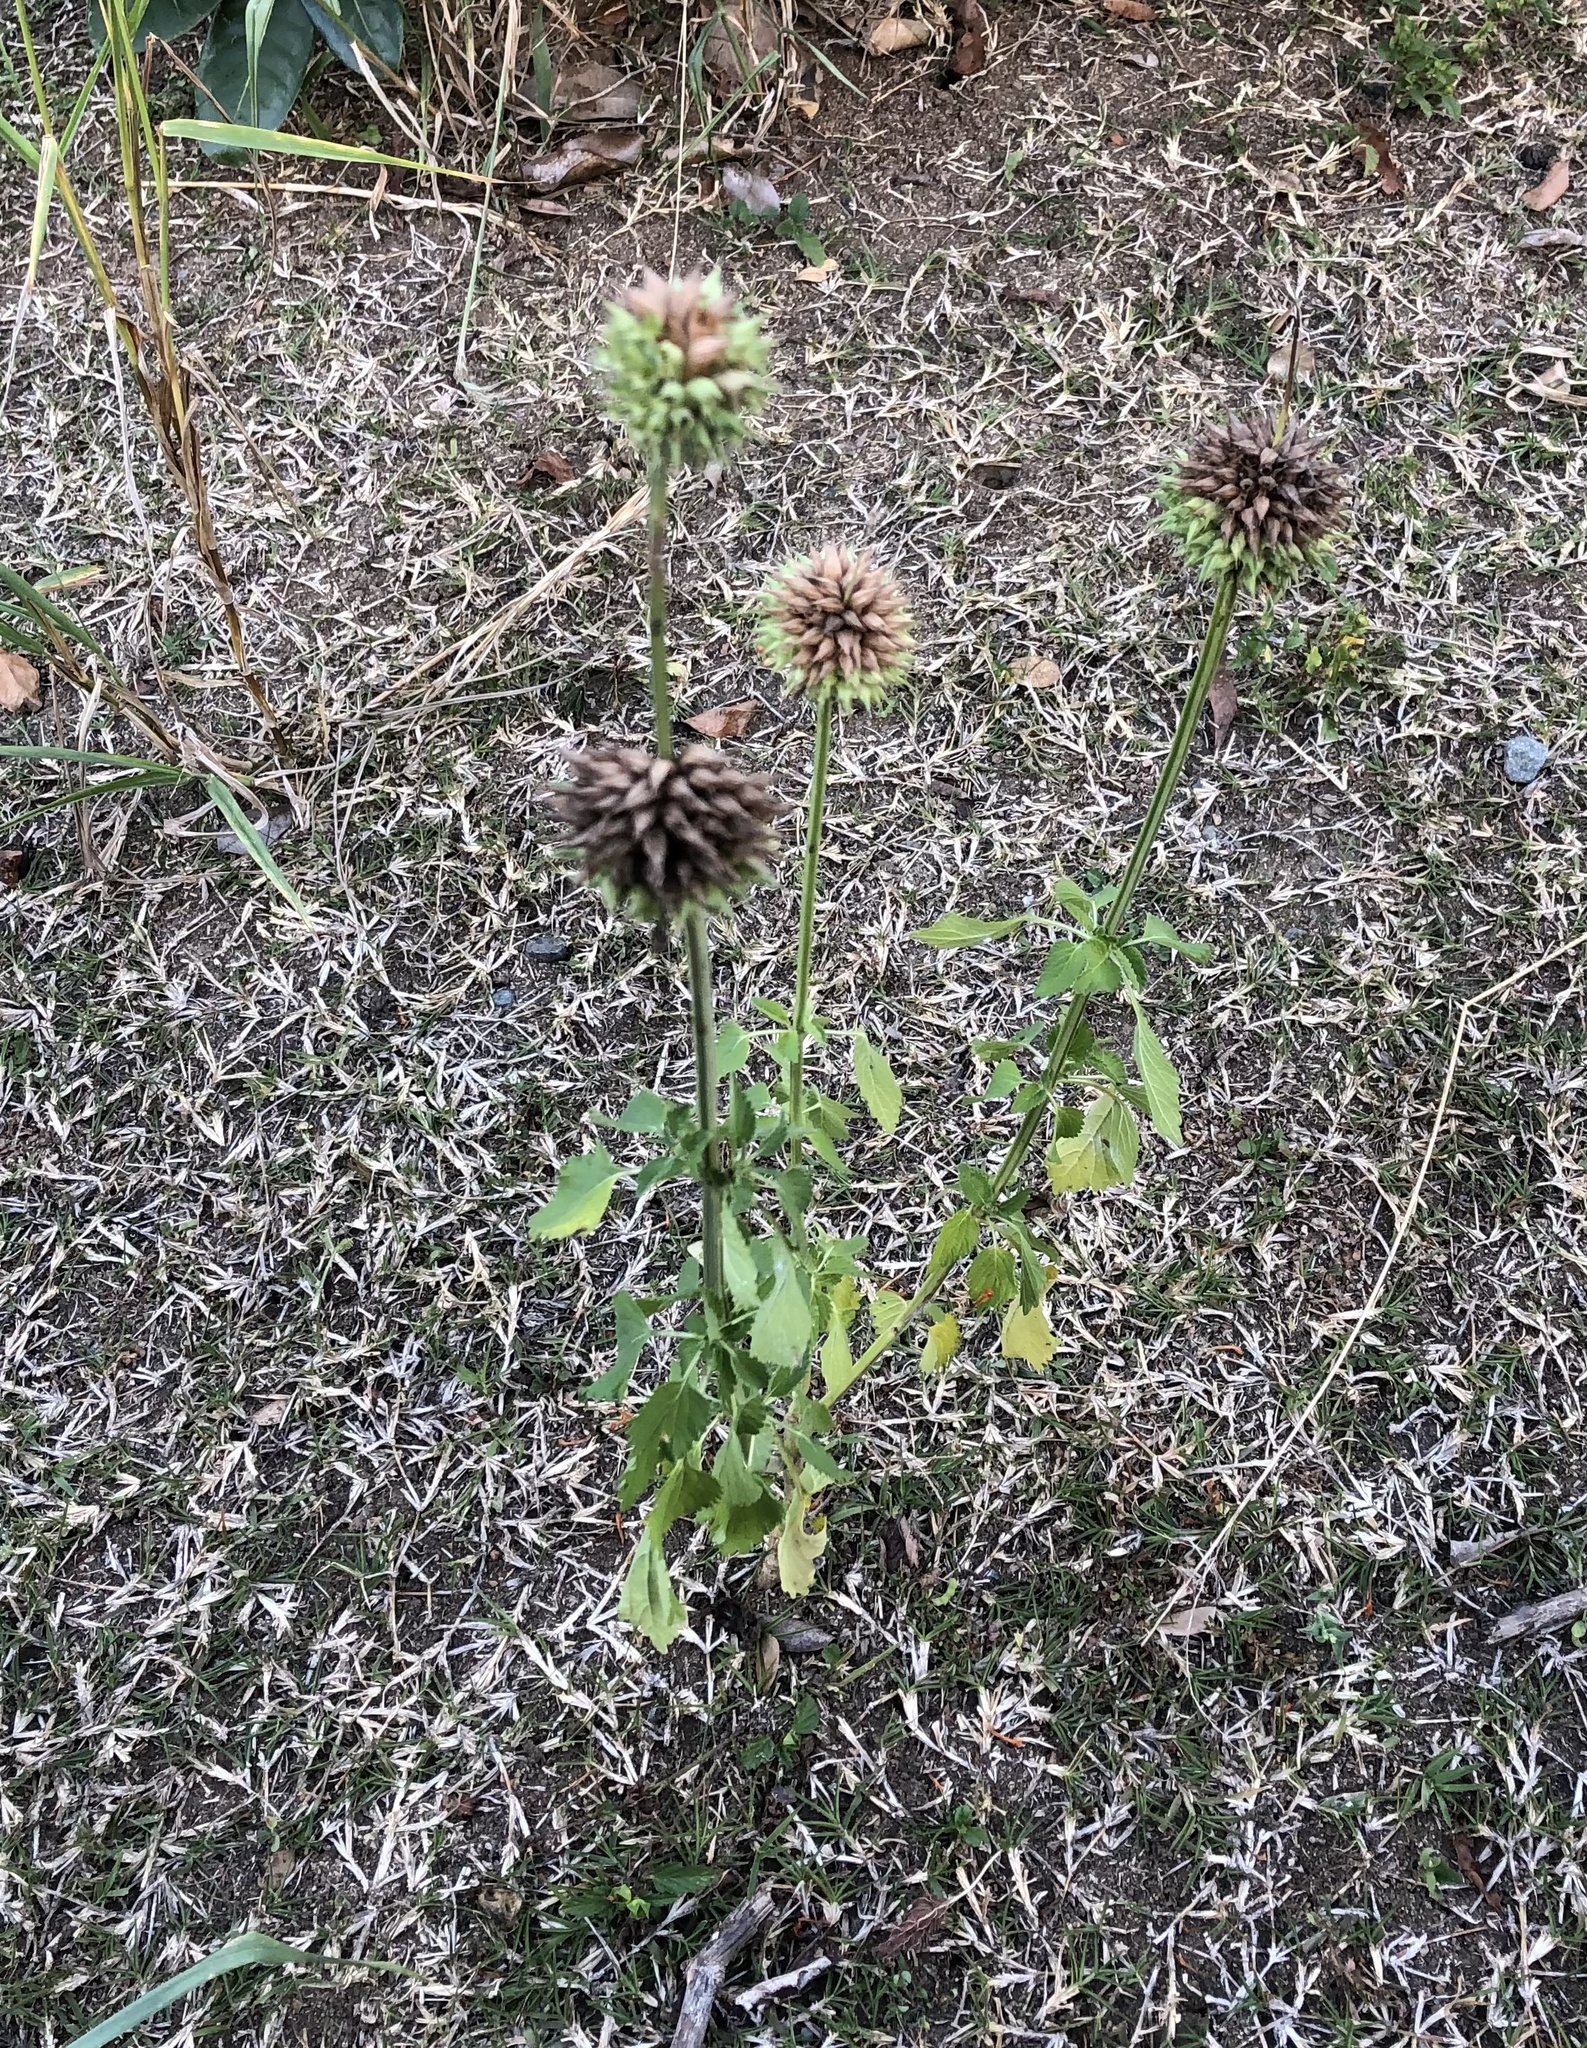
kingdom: Plantae
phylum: Tracheophyta
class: Magnoliopsida
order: Lamiales
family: Lamiaceae
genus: Leonotis
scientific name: Leonotis nepetifolia
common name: Christmas candlestick
